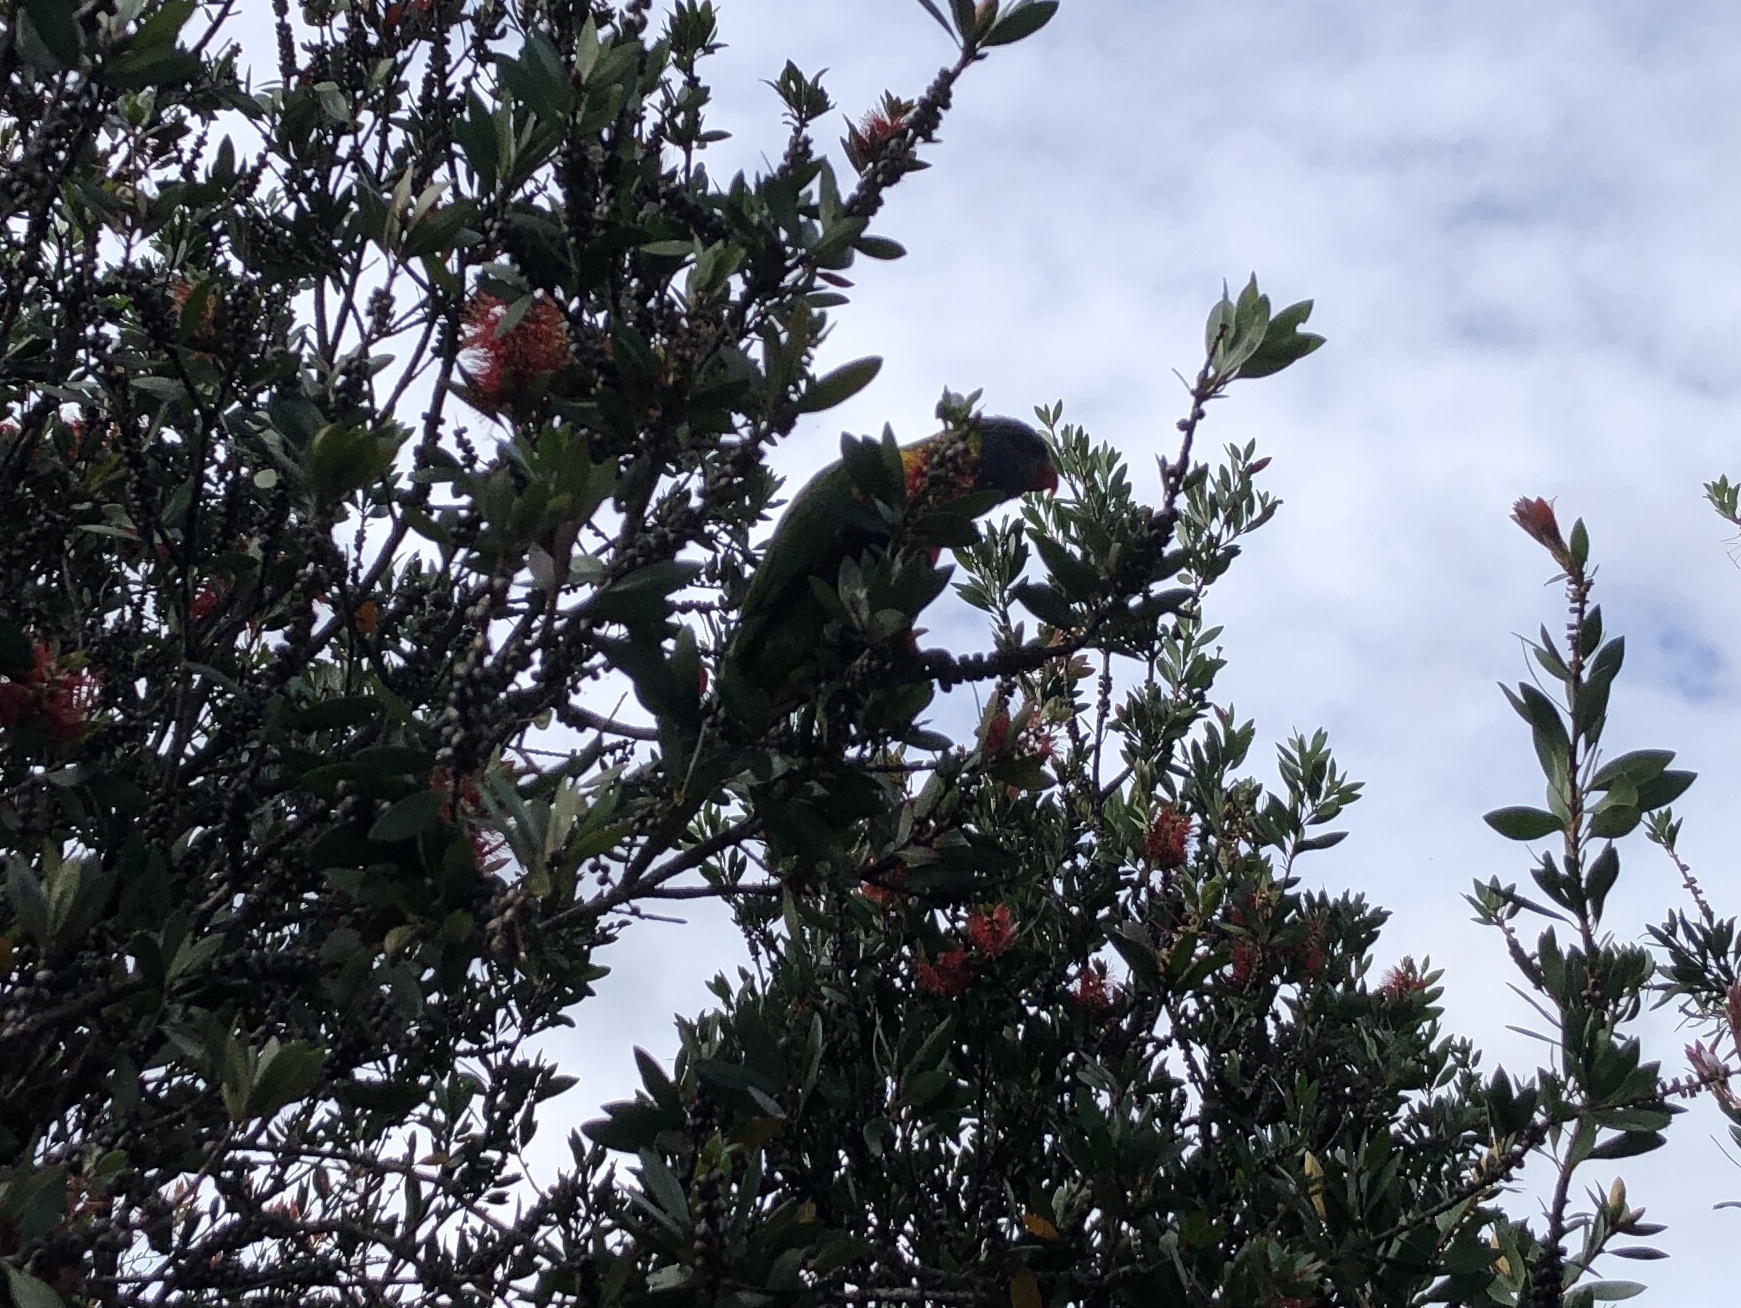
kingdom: Animalia
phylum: Chordata
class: Aves
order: Psittaciformes
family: Psittacidae
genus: Trichoglossus
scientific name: Trichoglossus haematodus
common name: Coconut lorikeet
